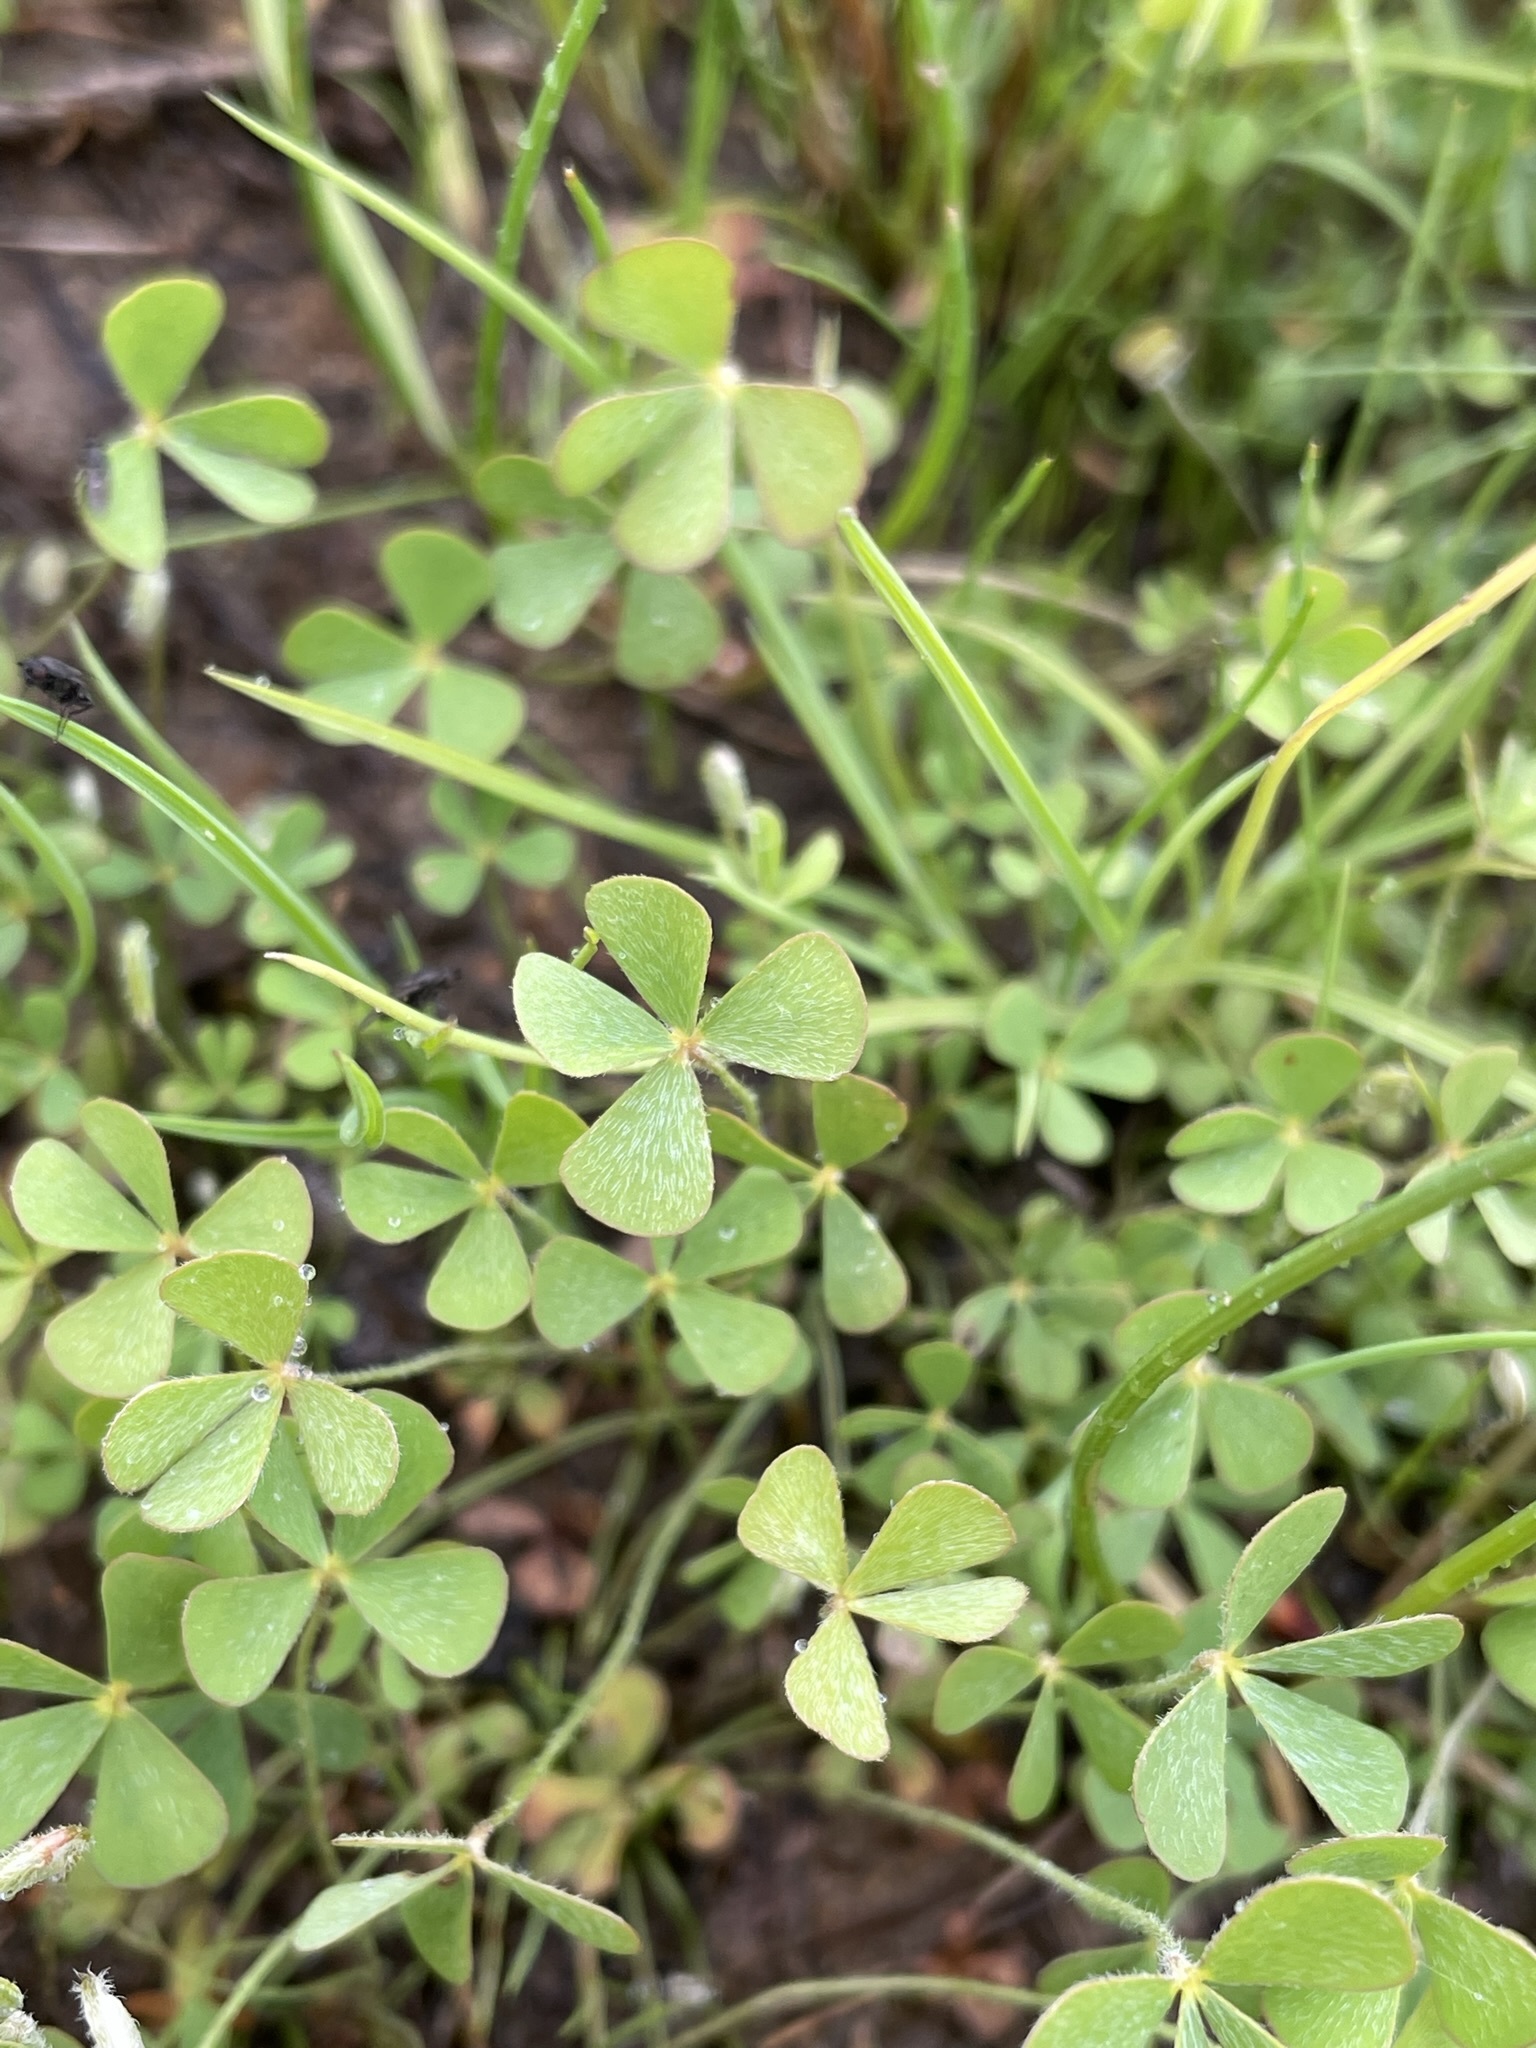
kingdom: Plantae
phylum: Tracheophyta
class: Polypodiopsida
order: Salviniales
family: Marsileaceae
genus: Marsilea
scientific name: Marsilea vestita
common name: Hooked-pepperwort
